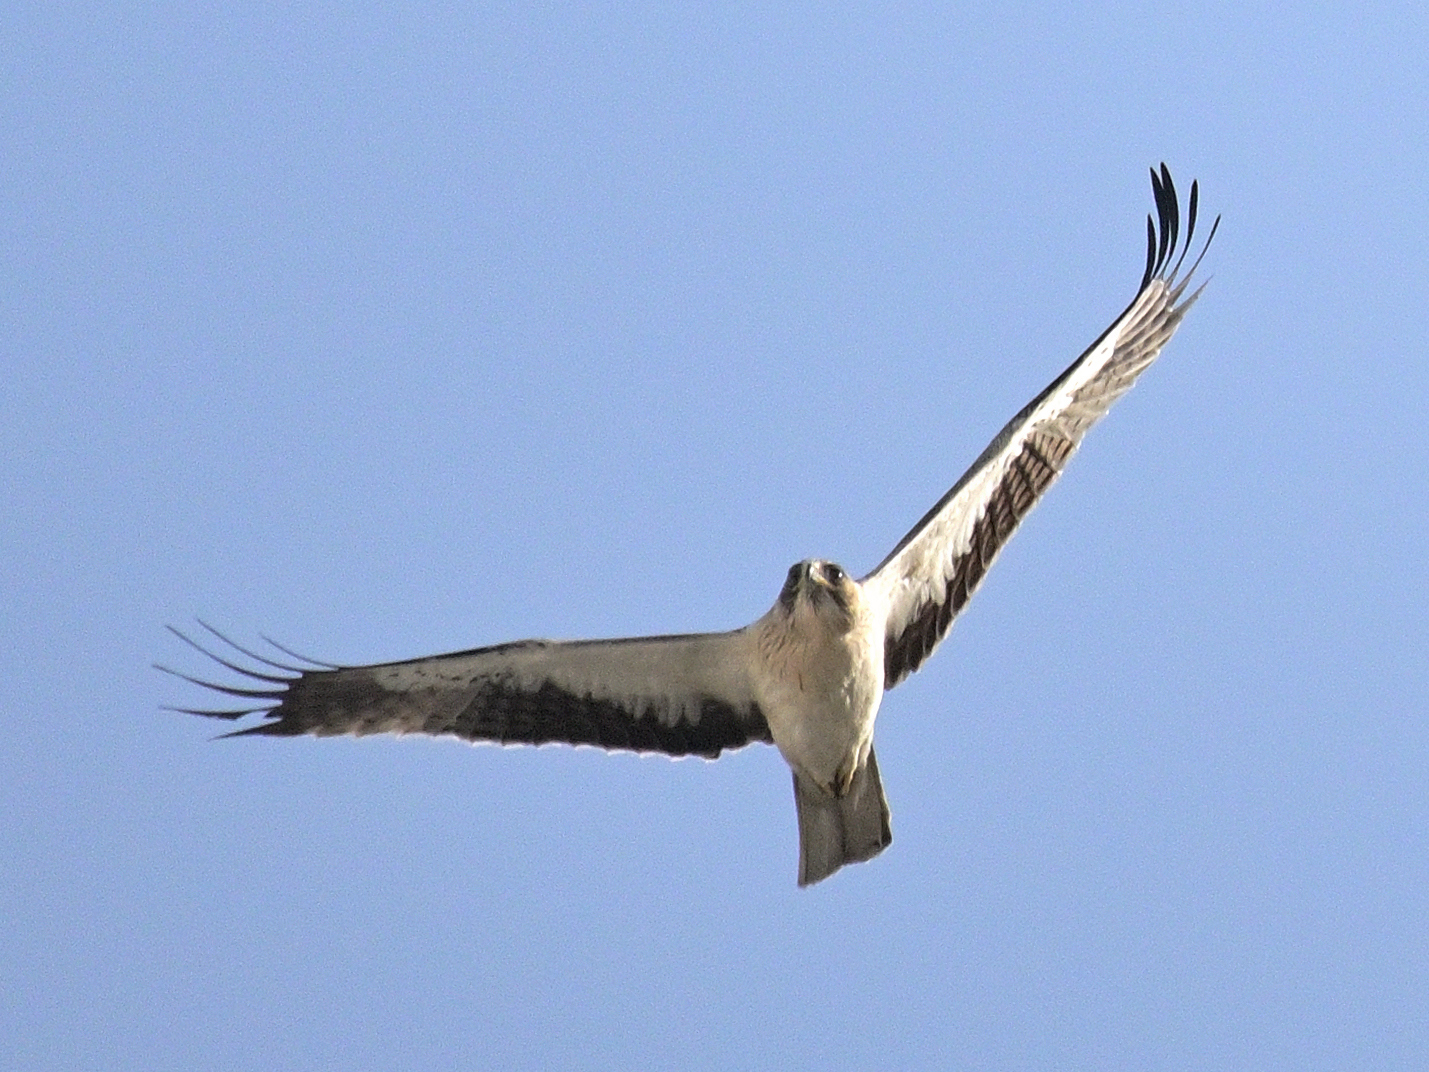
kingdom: Animalia
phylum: Chordata
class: Aves
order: Accipitriformes
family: Accipitridae
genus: Hieraaetus
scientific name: Hieraaetus pennatus
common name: Booted eagle
